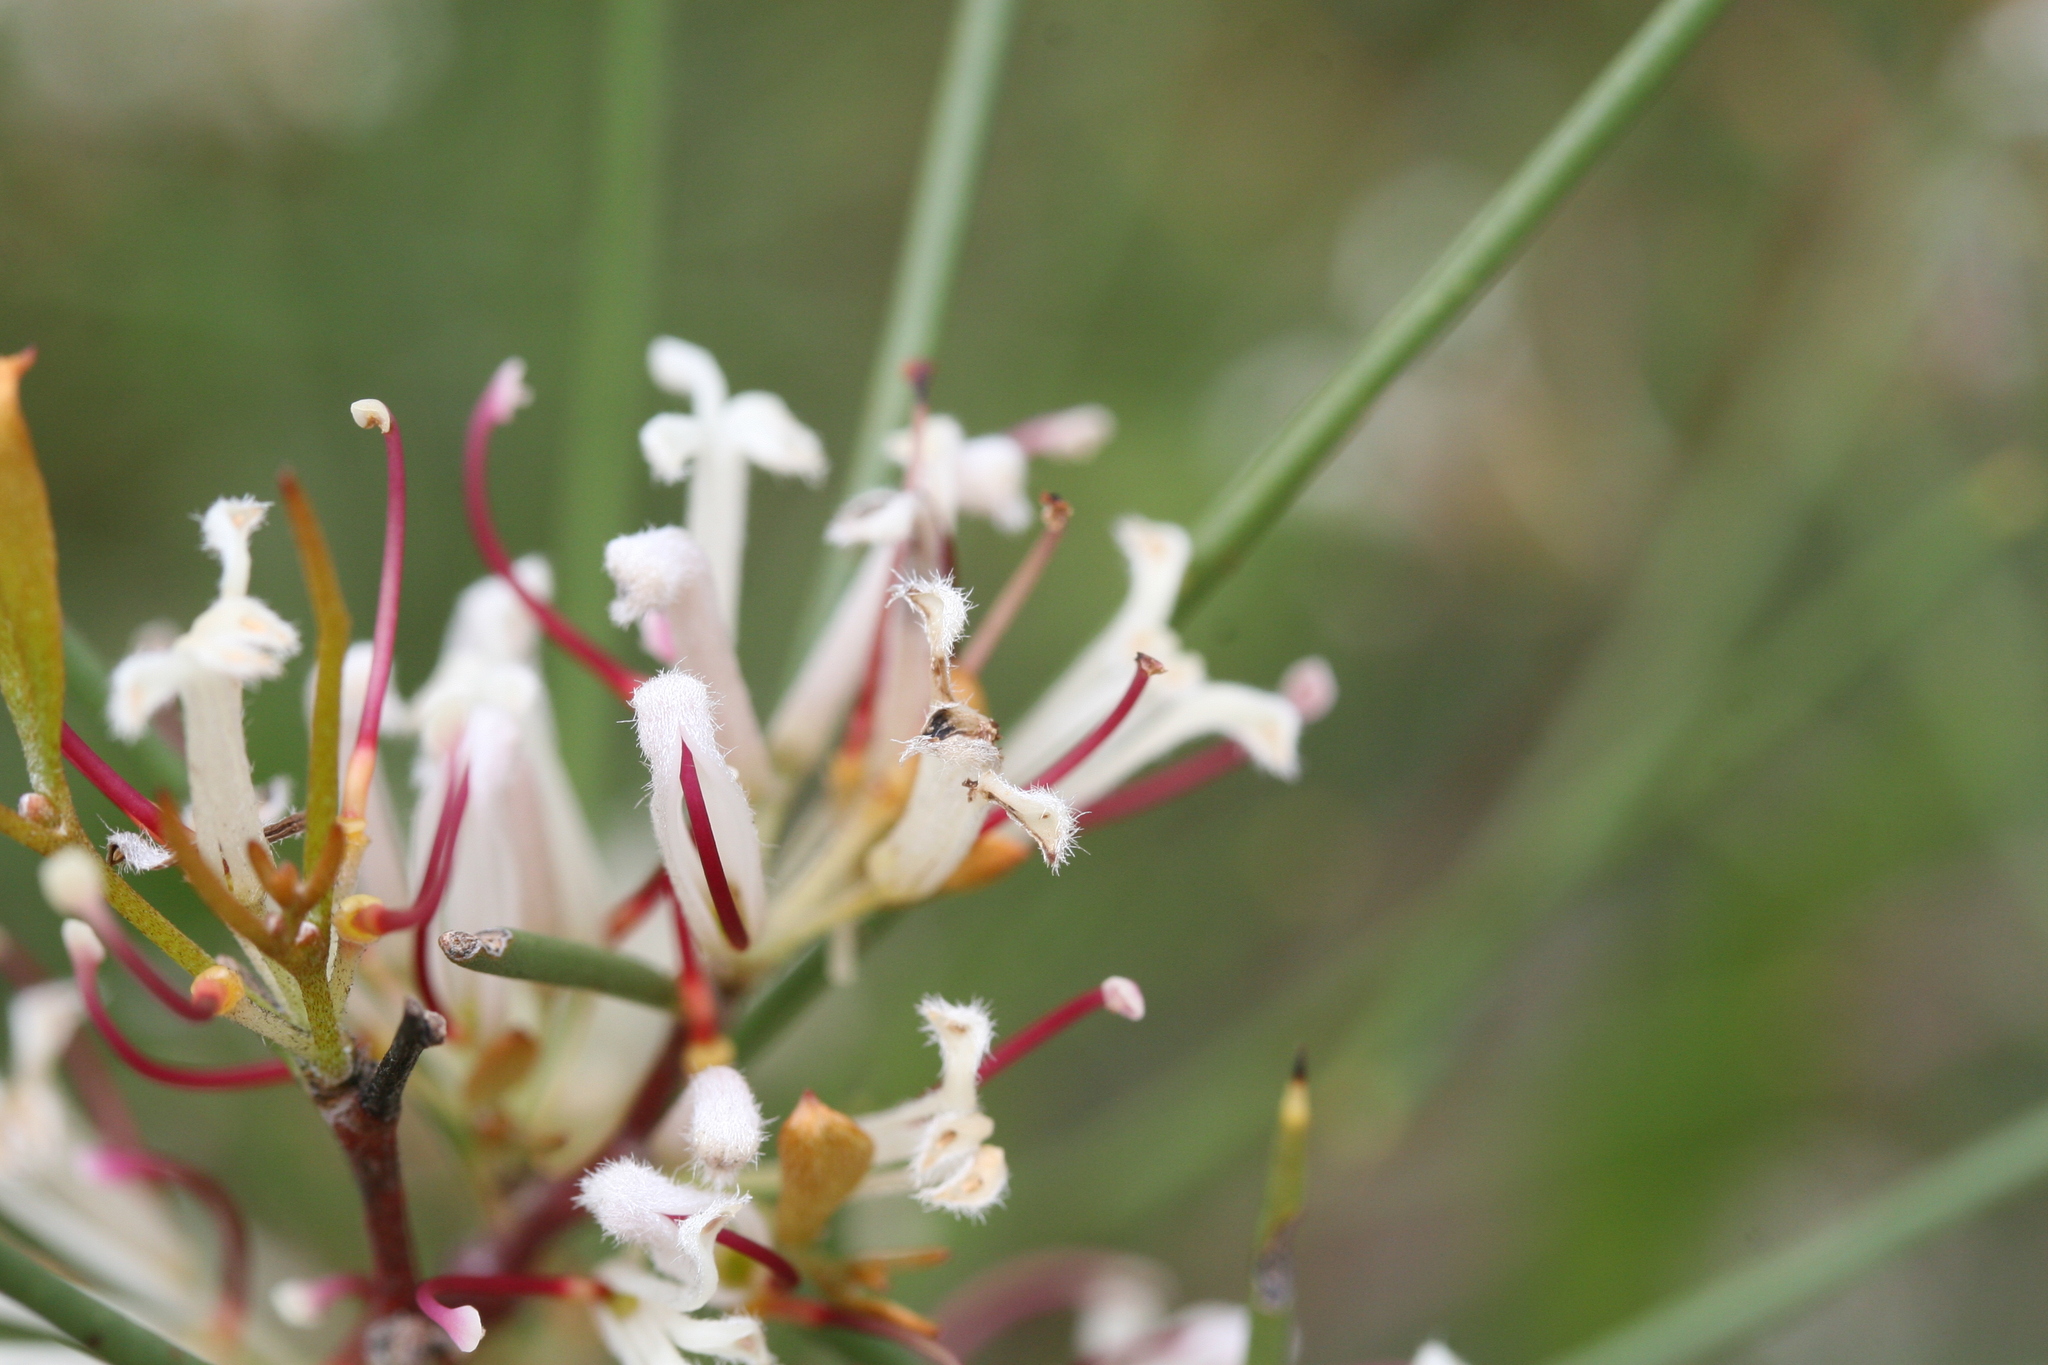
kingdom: Plantae
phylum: Tracheophyta
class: Magnoliopsida
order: Proteales
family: Proteaceae
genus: Hakea
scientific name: Hakea trifurcata
